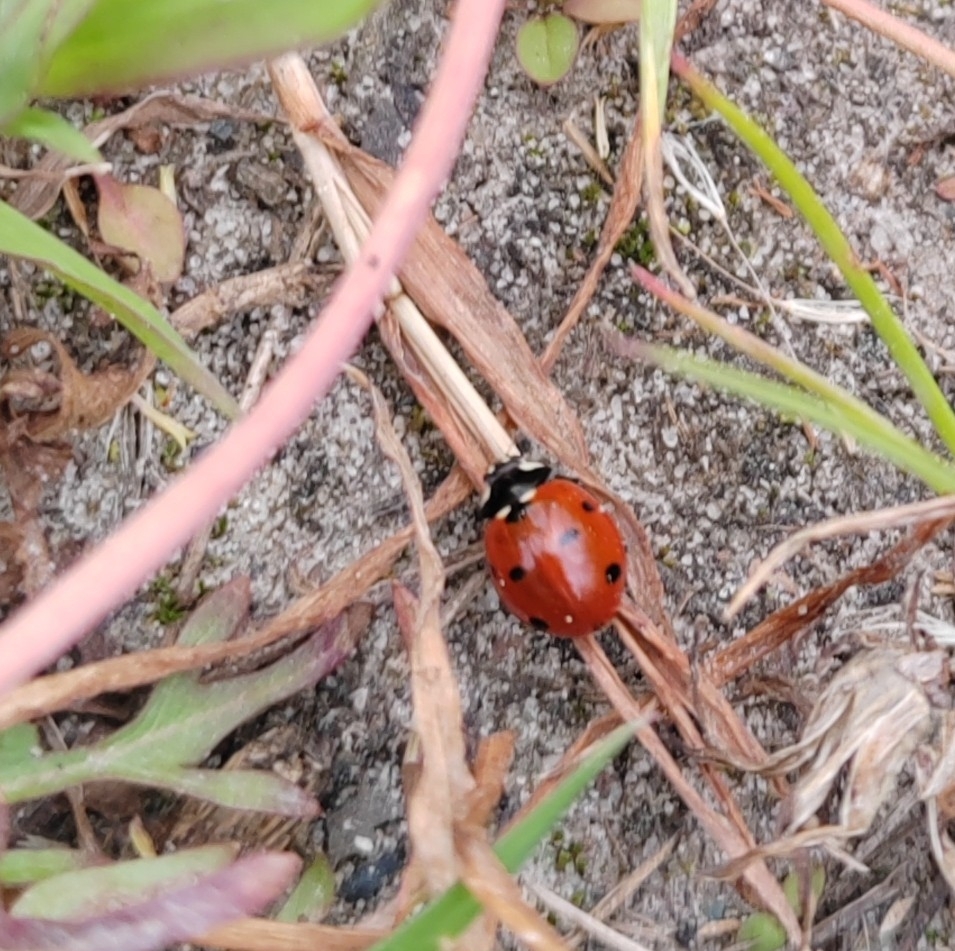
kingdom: Animalia
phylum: Arthropoda
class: Insecta
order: Coleoptera
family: Coccinellidae
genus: Coccinella
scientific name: Coccinella septempunctata
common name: Sevenspotted lady beetle
